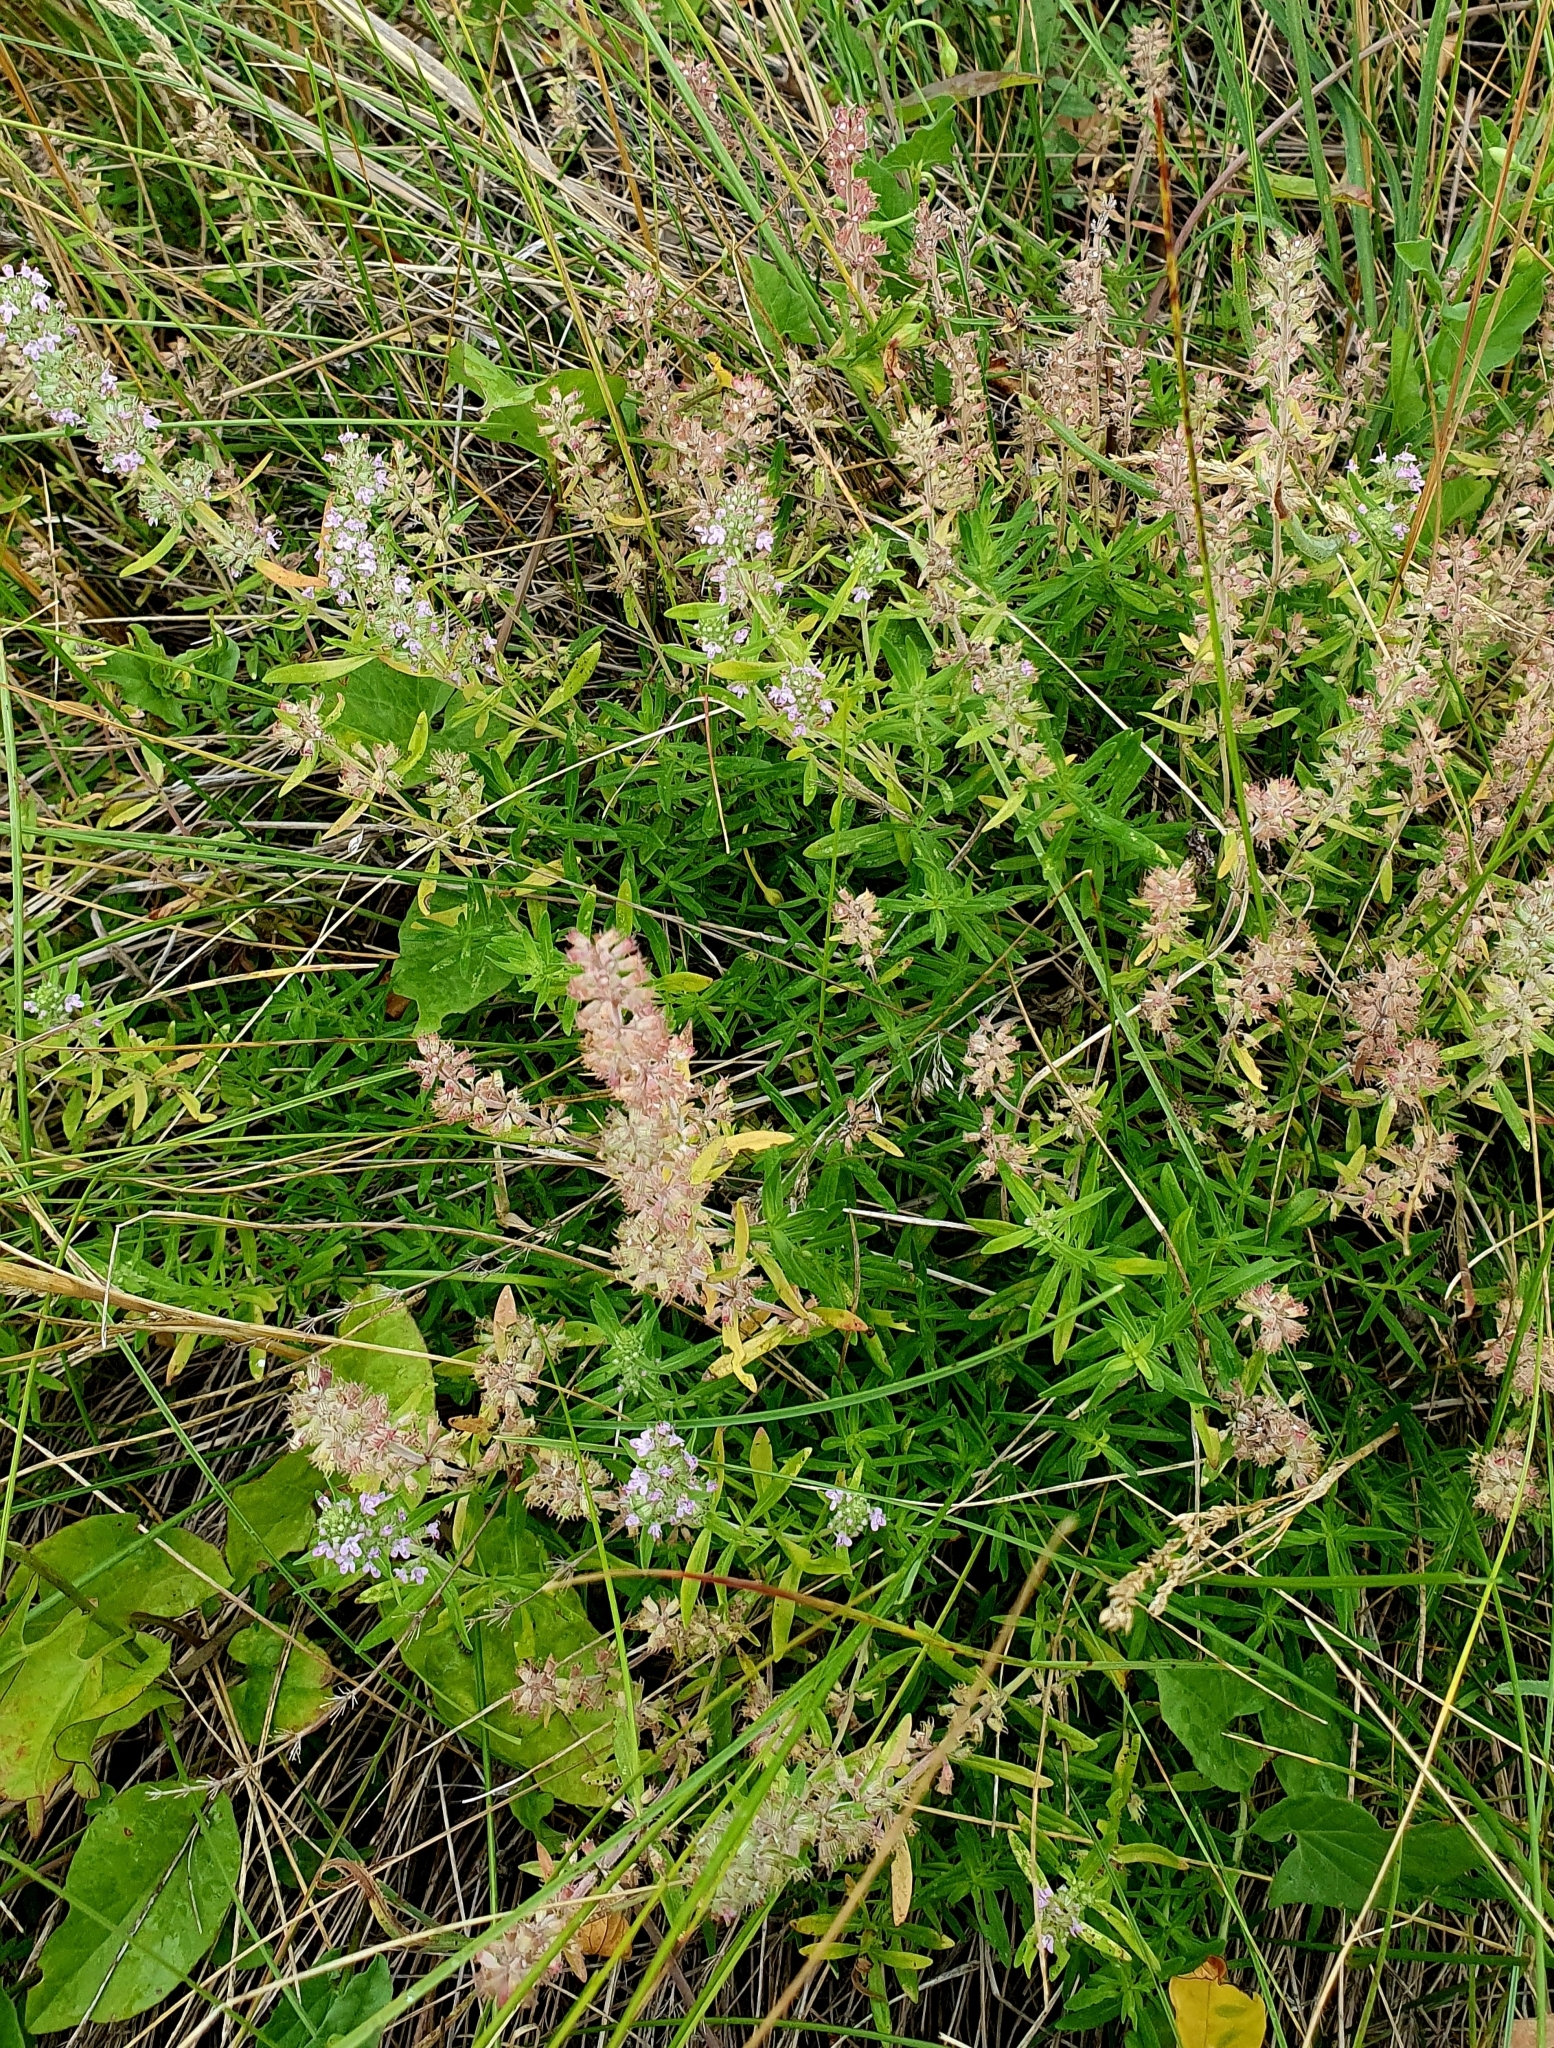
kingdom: Plantae
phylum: Tracheophyta
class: Magnoliopsida
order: Lamiales
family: Lamiaceae
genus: Thymus
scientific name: Thymus pannonicus
